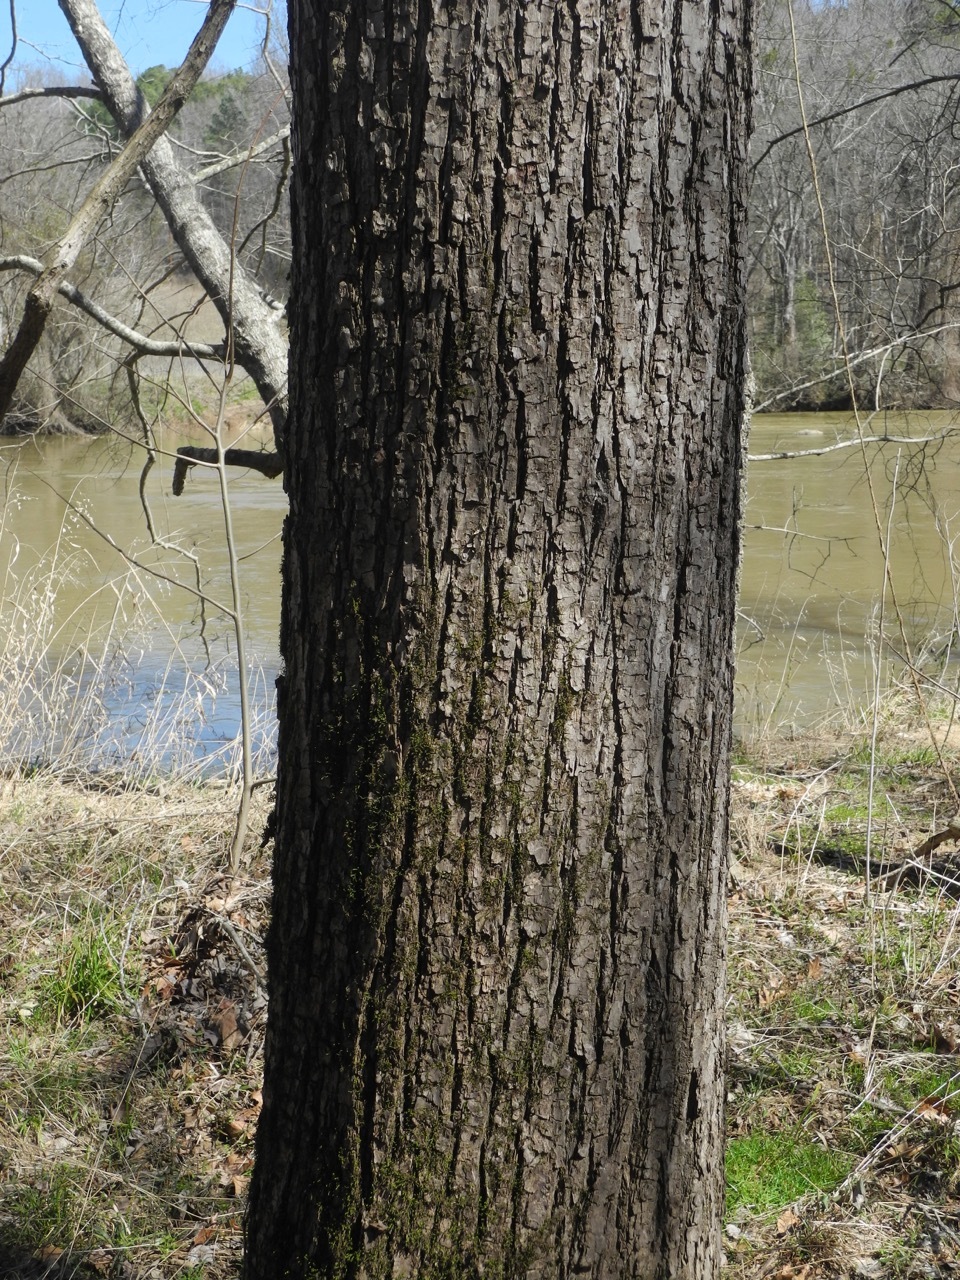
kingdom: Plantae
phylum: Tracheophyta
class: Magnoliopsida
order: Fagales
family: Fagaceae
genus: Quercus
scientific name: Quercus lyrata
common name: Overcup oak
